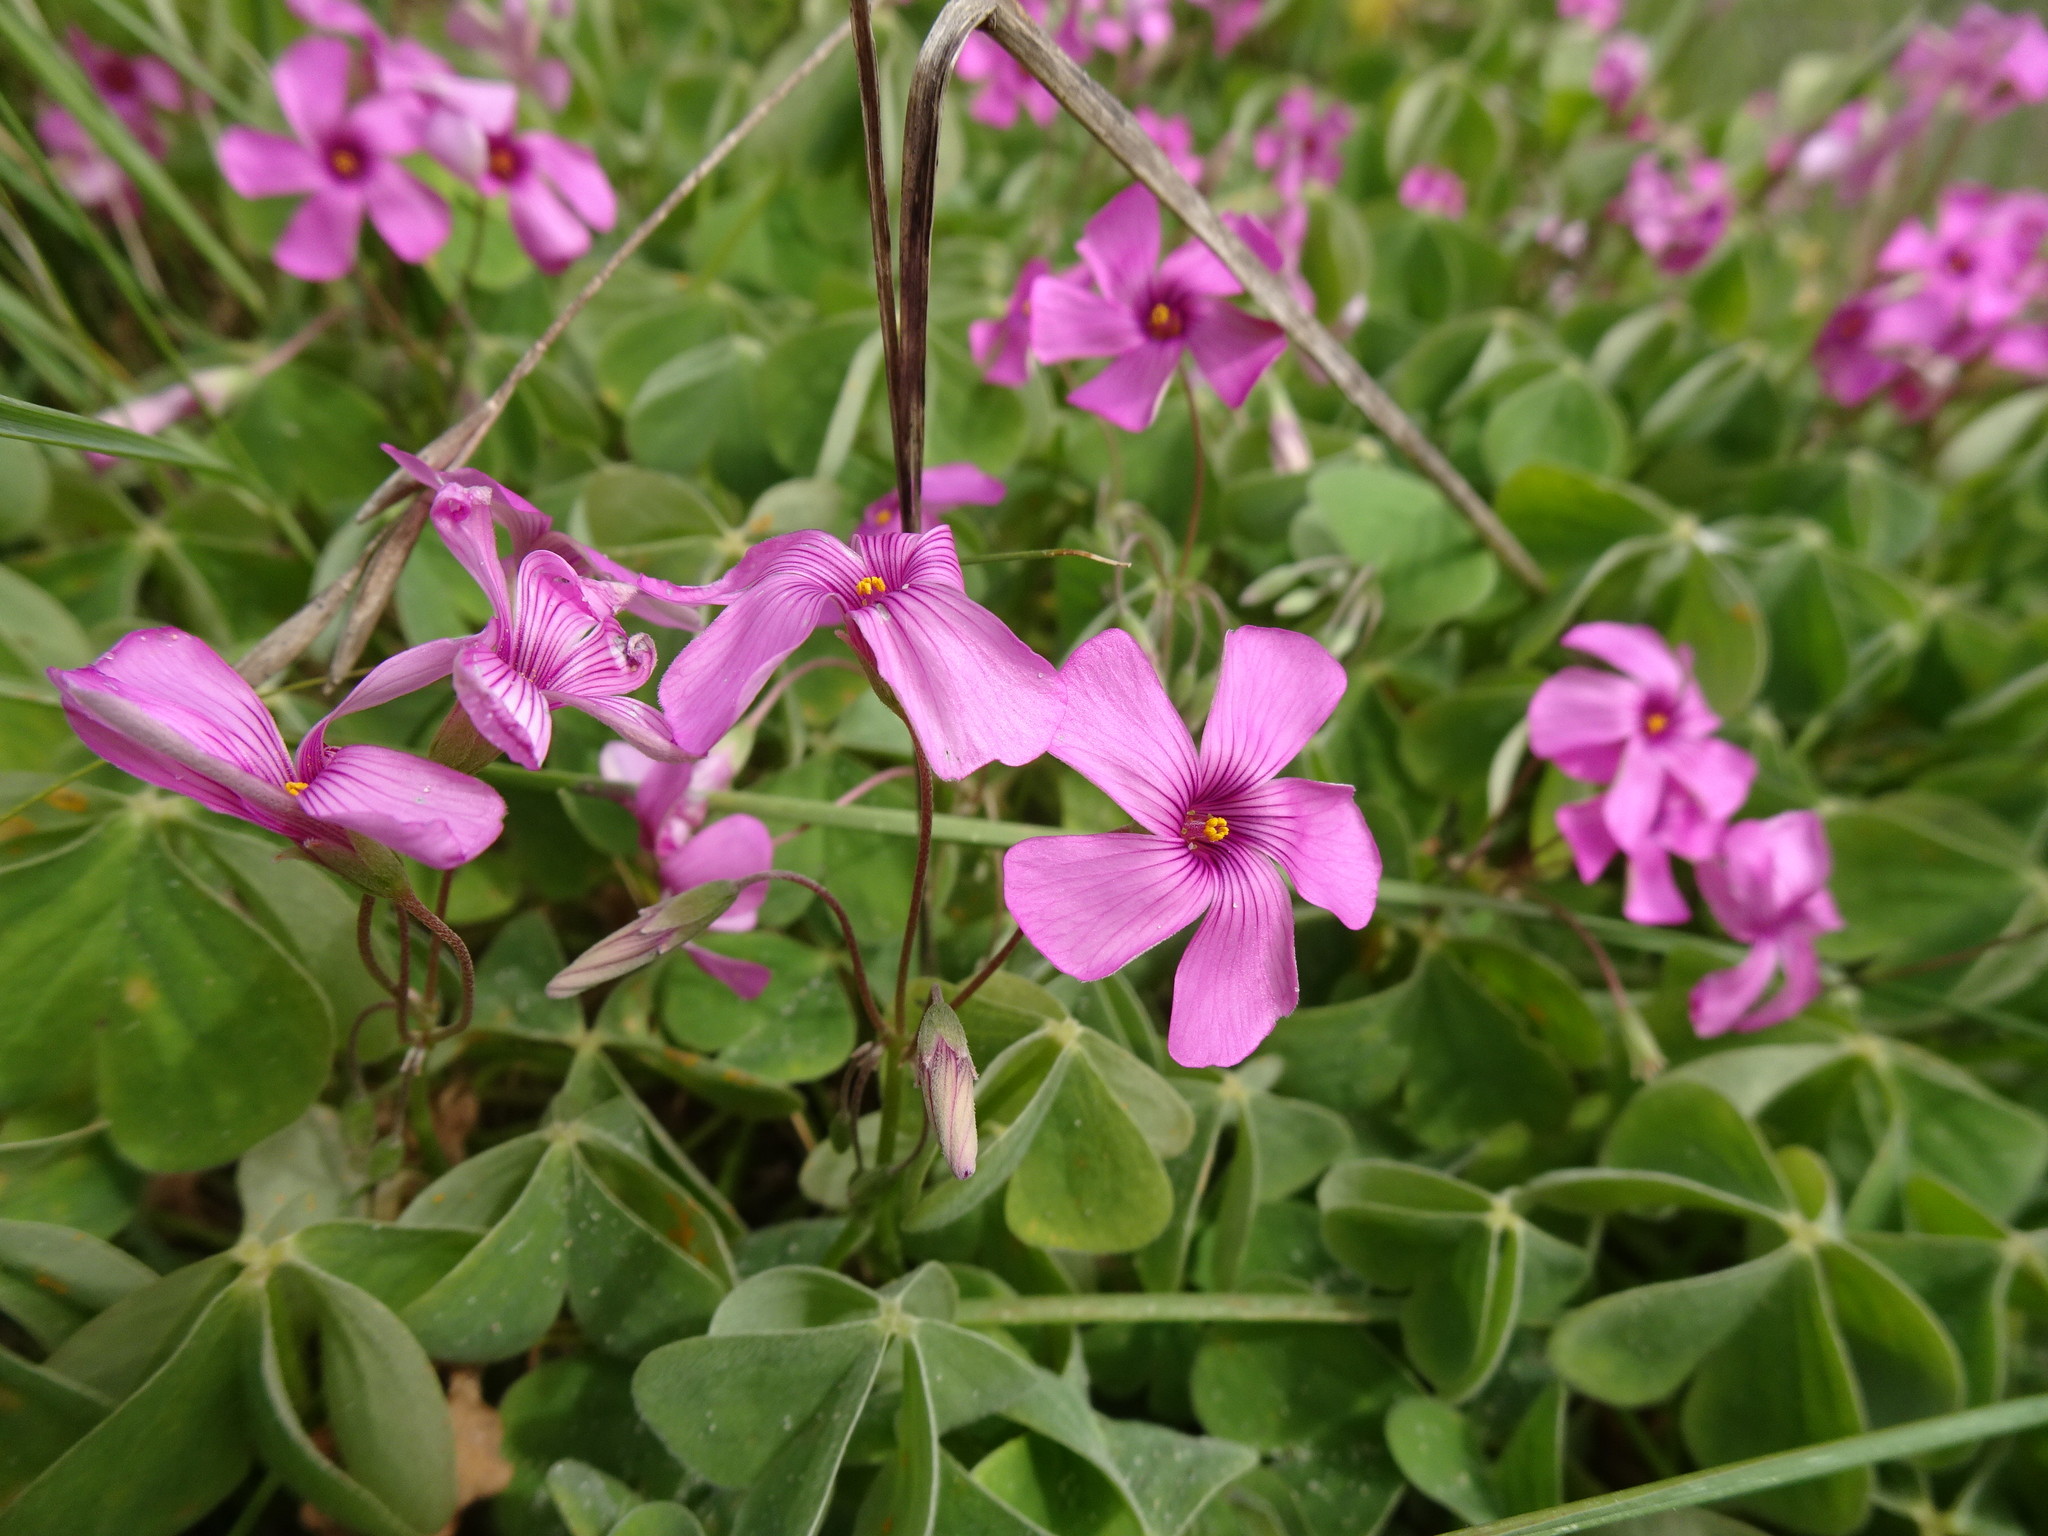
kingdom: Plantae
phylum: Tracheophyta
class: Magnoliopsida
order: Oxalidales
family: Oxalidaceae
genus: Oxalis
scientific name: Oxalis articulata
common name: Pink-sorrel
